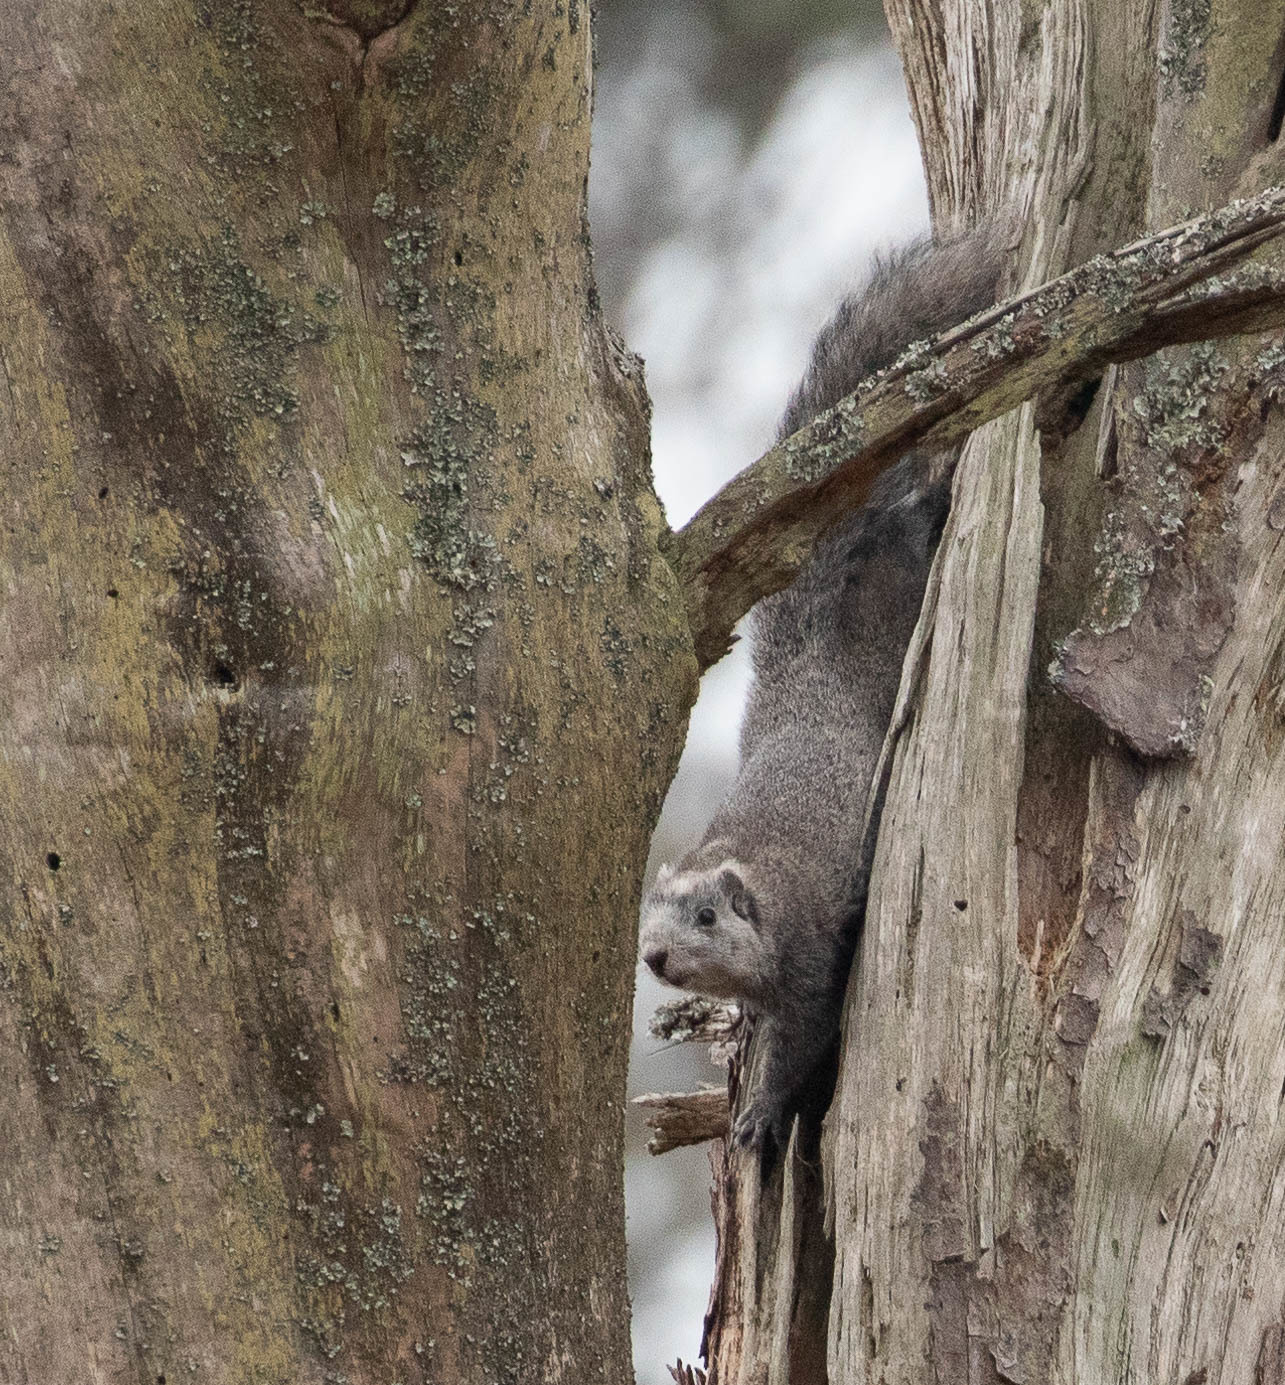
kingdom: Animalia
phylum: Chordata
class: Mammalia
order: Rodentia
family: Sciuridae
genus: Sciurus
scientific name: Sciurus niger
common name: Fox squirrel
